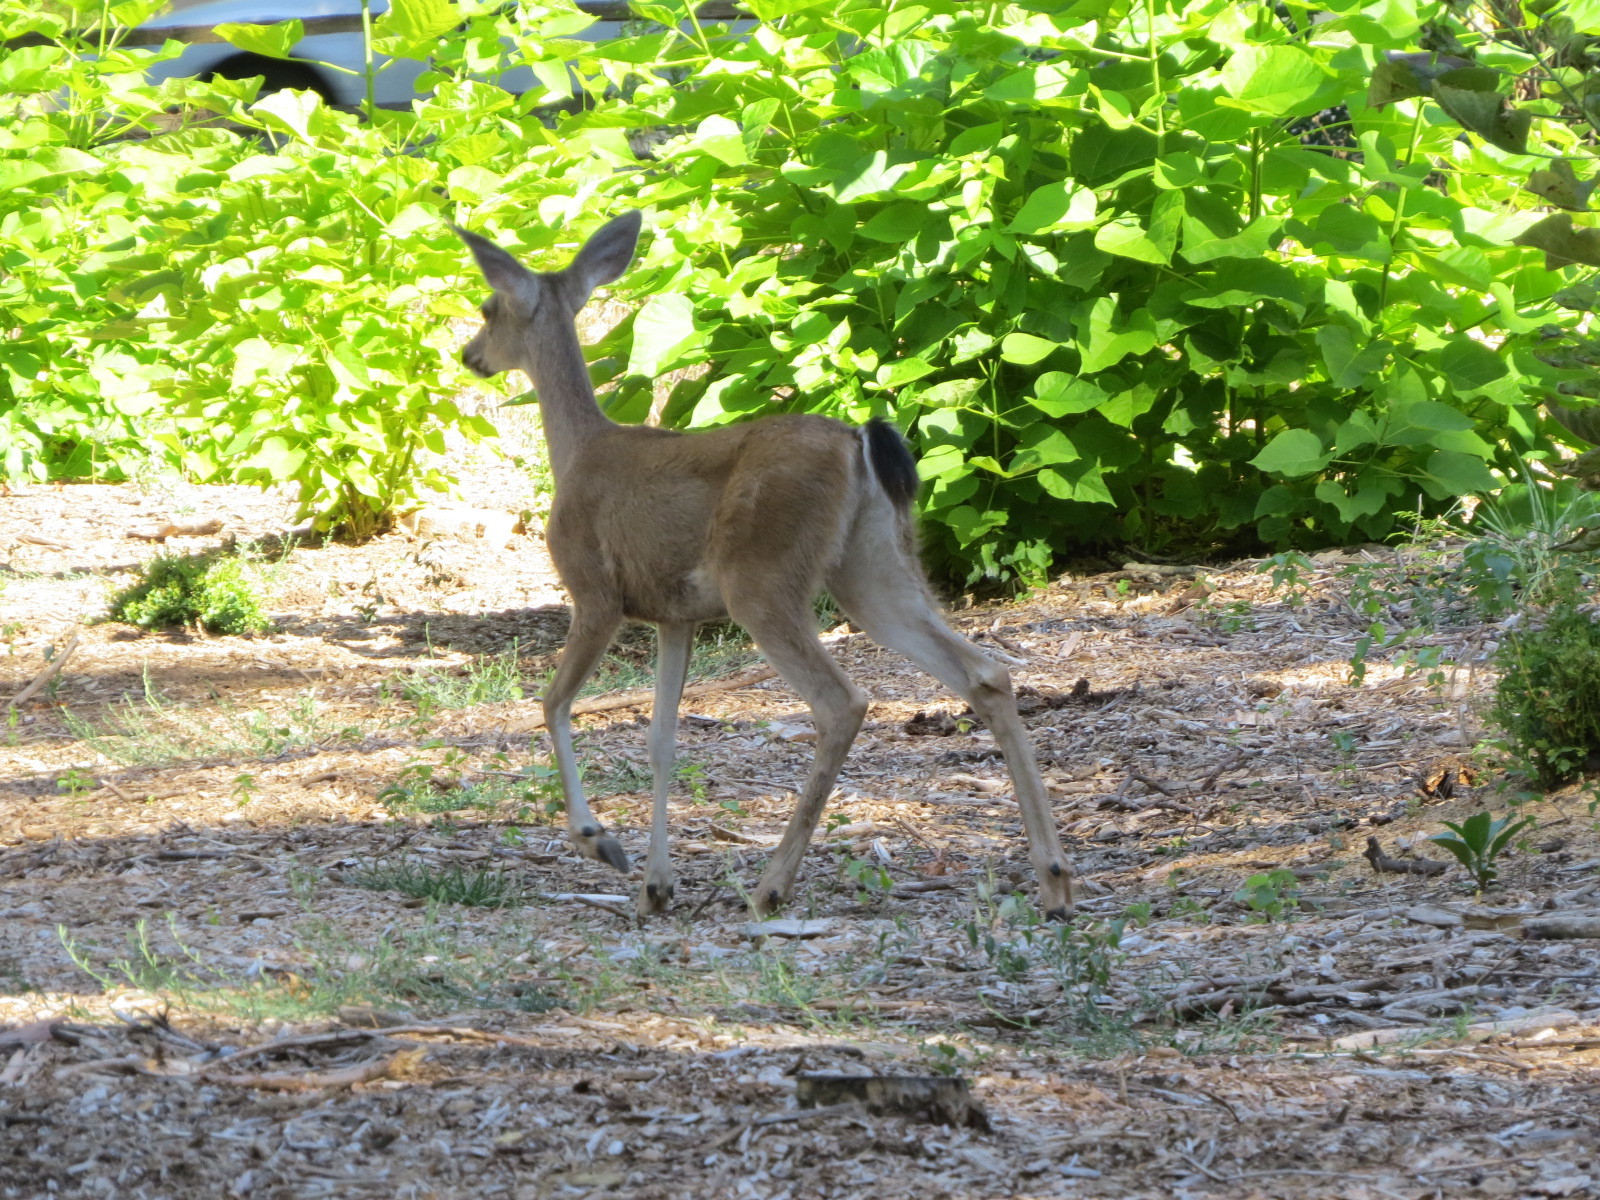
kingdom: Animalia
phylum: Chordata
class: Mammalia
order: Artiodactyla
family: Cervidae
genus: Odocoileus
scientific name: Odocoileus hemionus
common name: Mule deer
